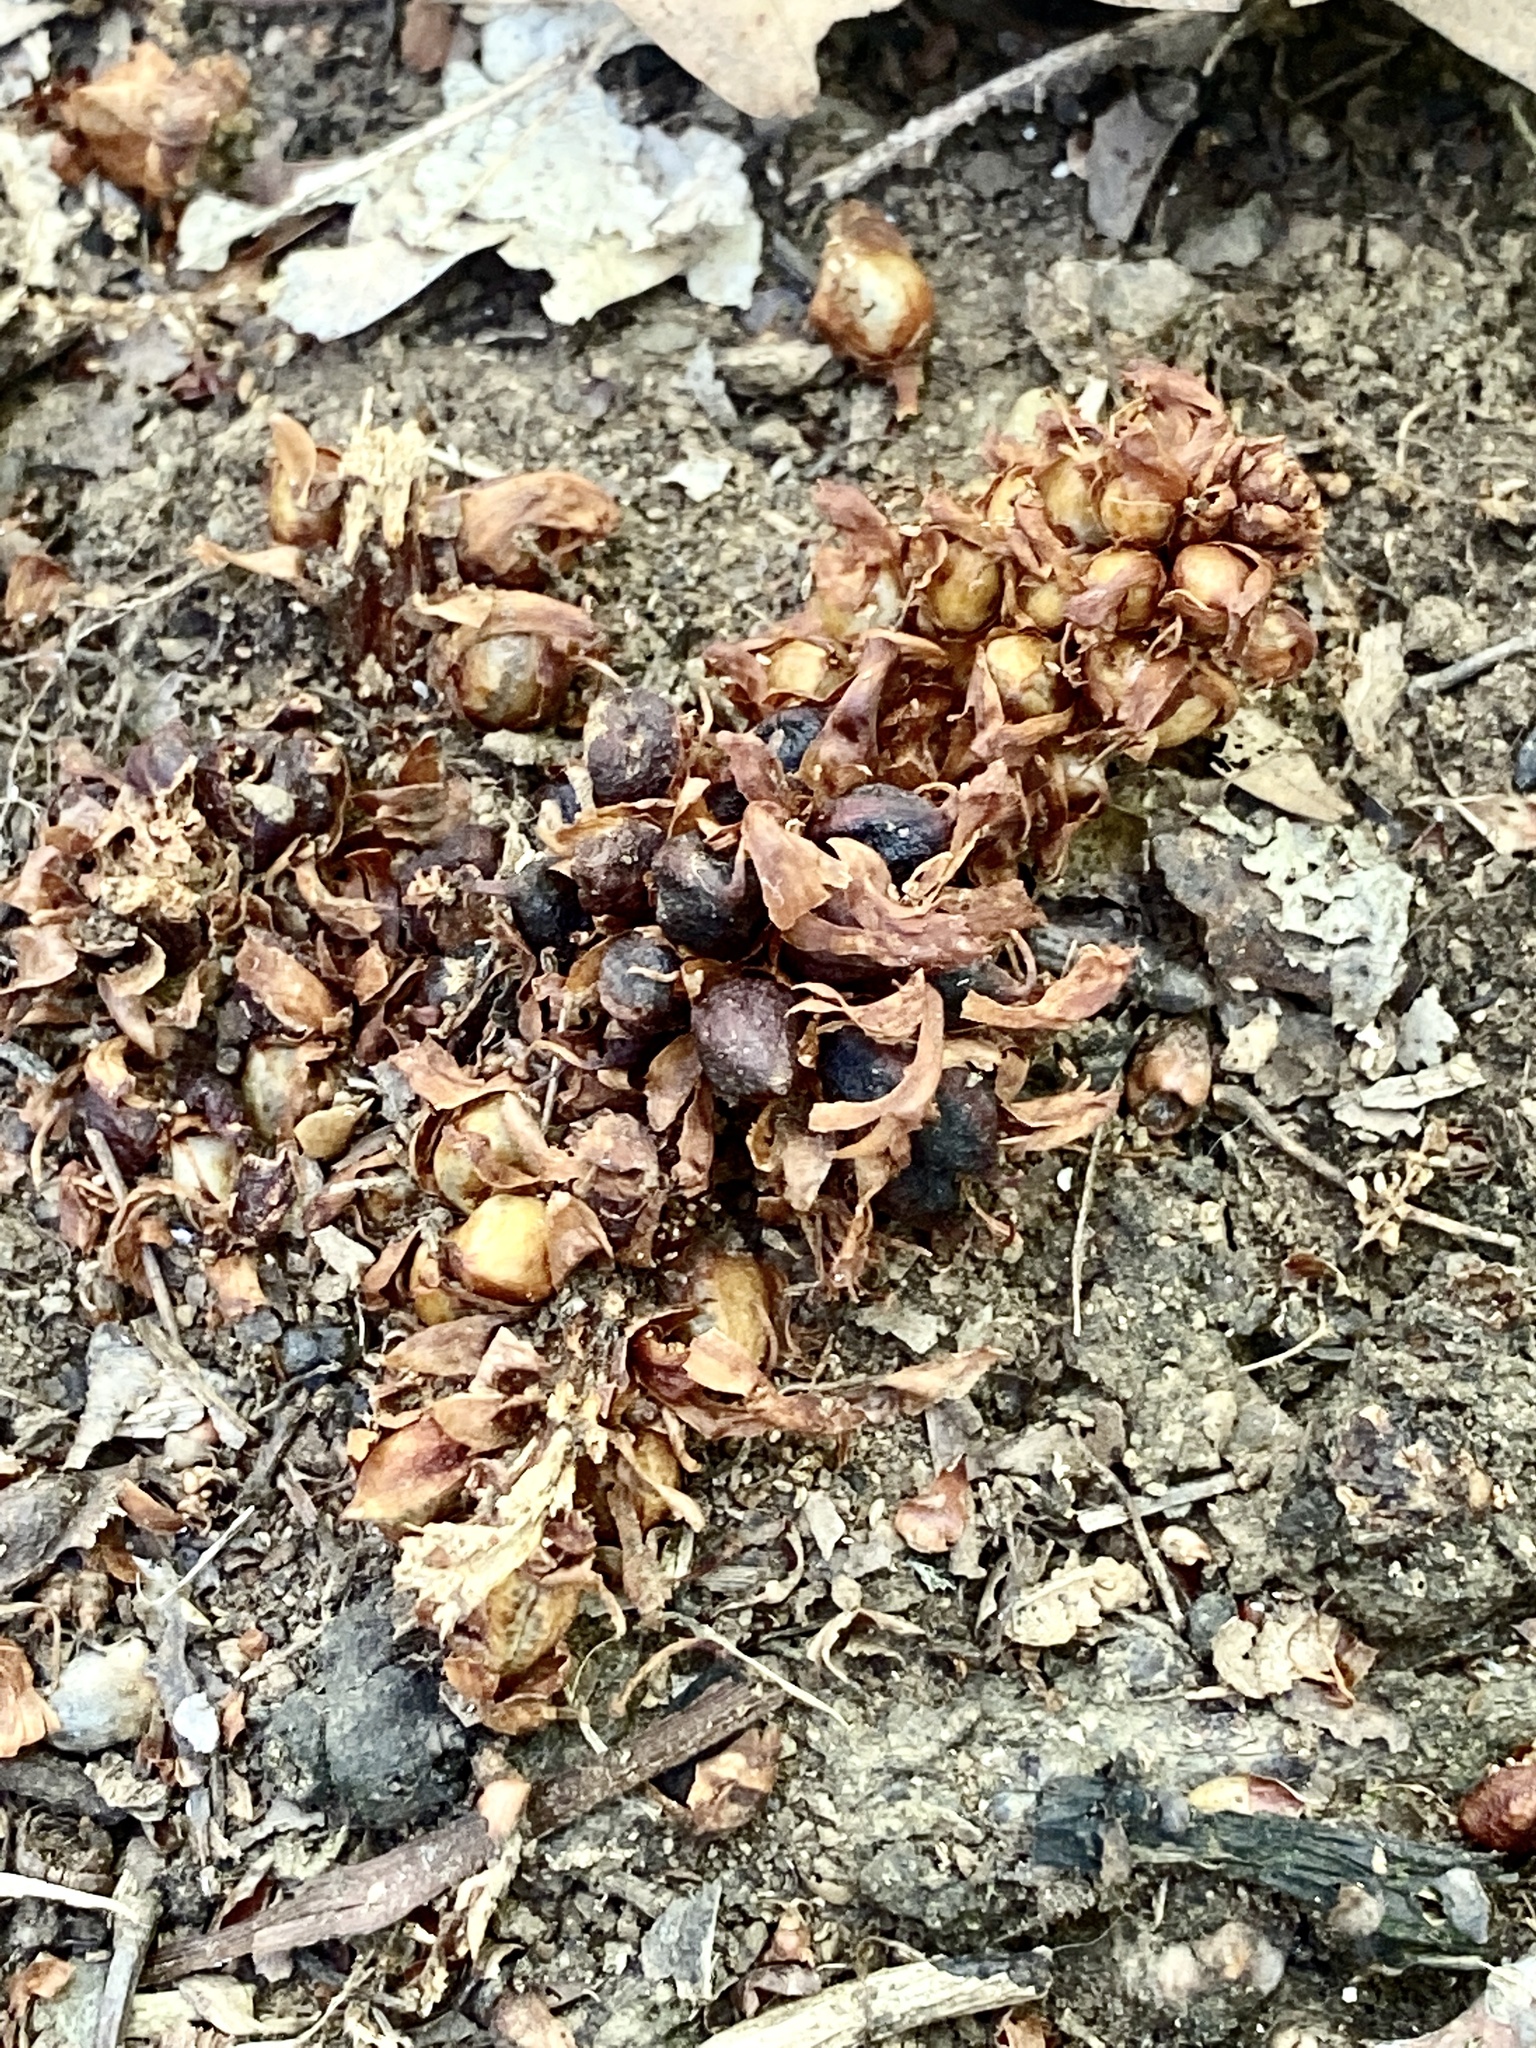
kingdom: Plantae
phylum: Tracheophyta
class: Magnoliopsida
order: Lamiales
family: Orobanchaceae
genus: Conopholis
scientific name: Conopholis americana
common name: American cancer-root
